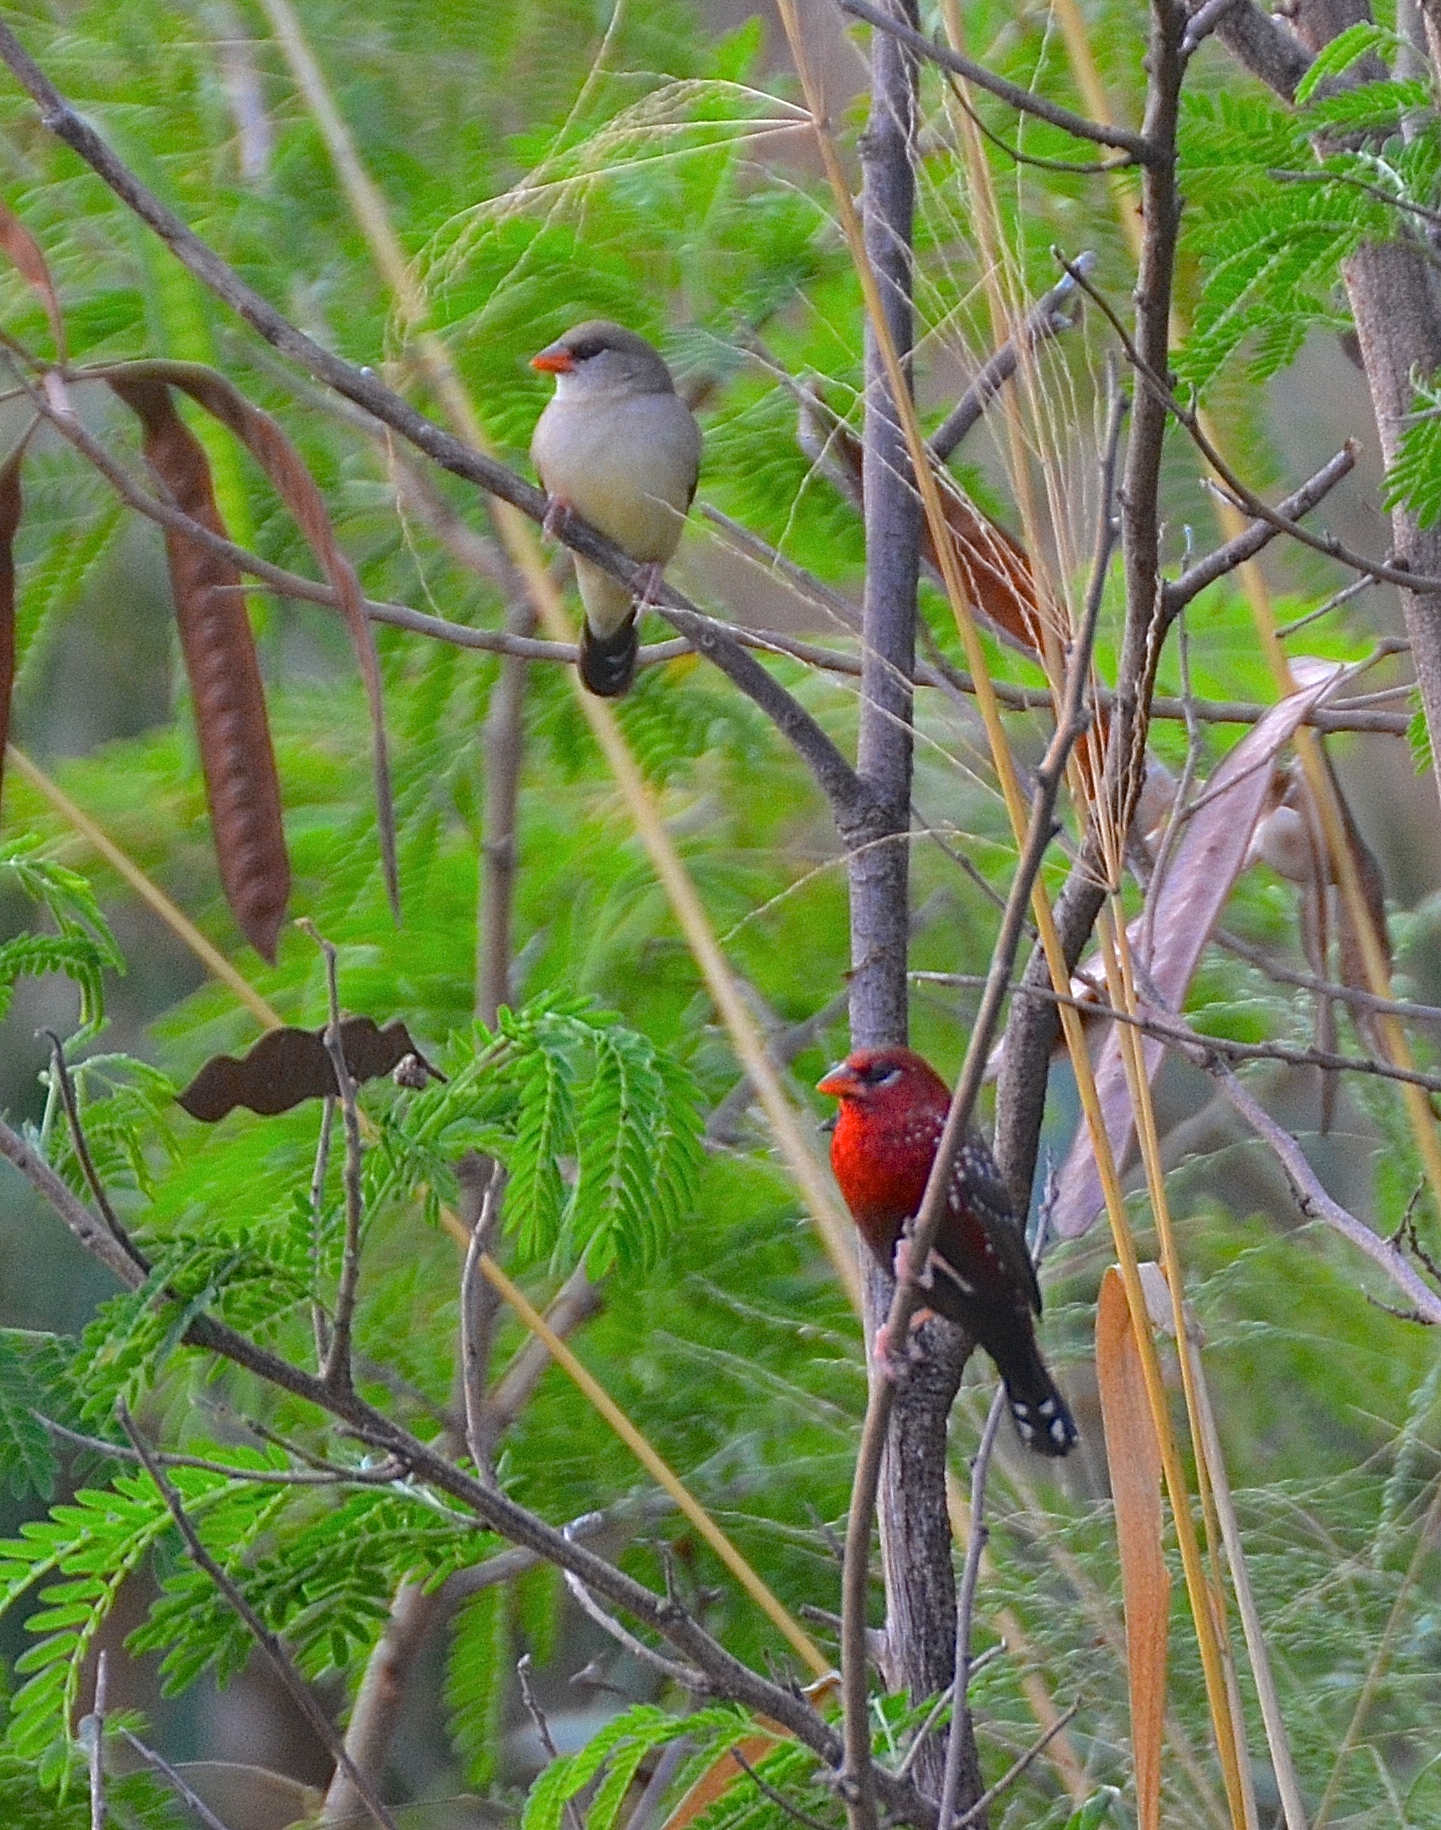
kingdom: Animalia
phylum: Chordata
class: Aves
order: Passeriformes
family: Estrildidae
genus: Amandava
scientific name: Amandava amandava
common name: Red avadavat
